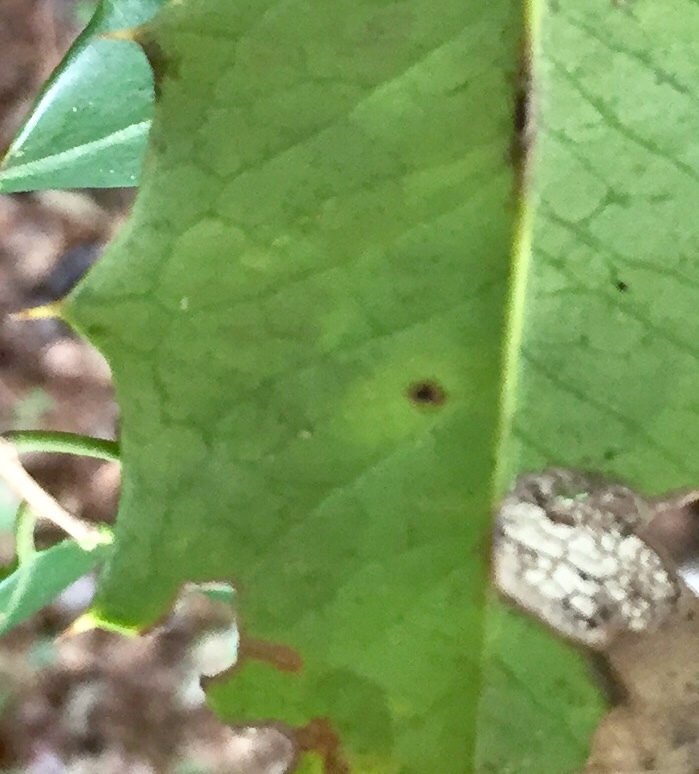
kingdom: Animalia
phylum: Arthropoda
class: Insecta
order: Diptera
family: Agromyzidae
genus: Phytomyza
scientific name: Phytomyza ilicicola
